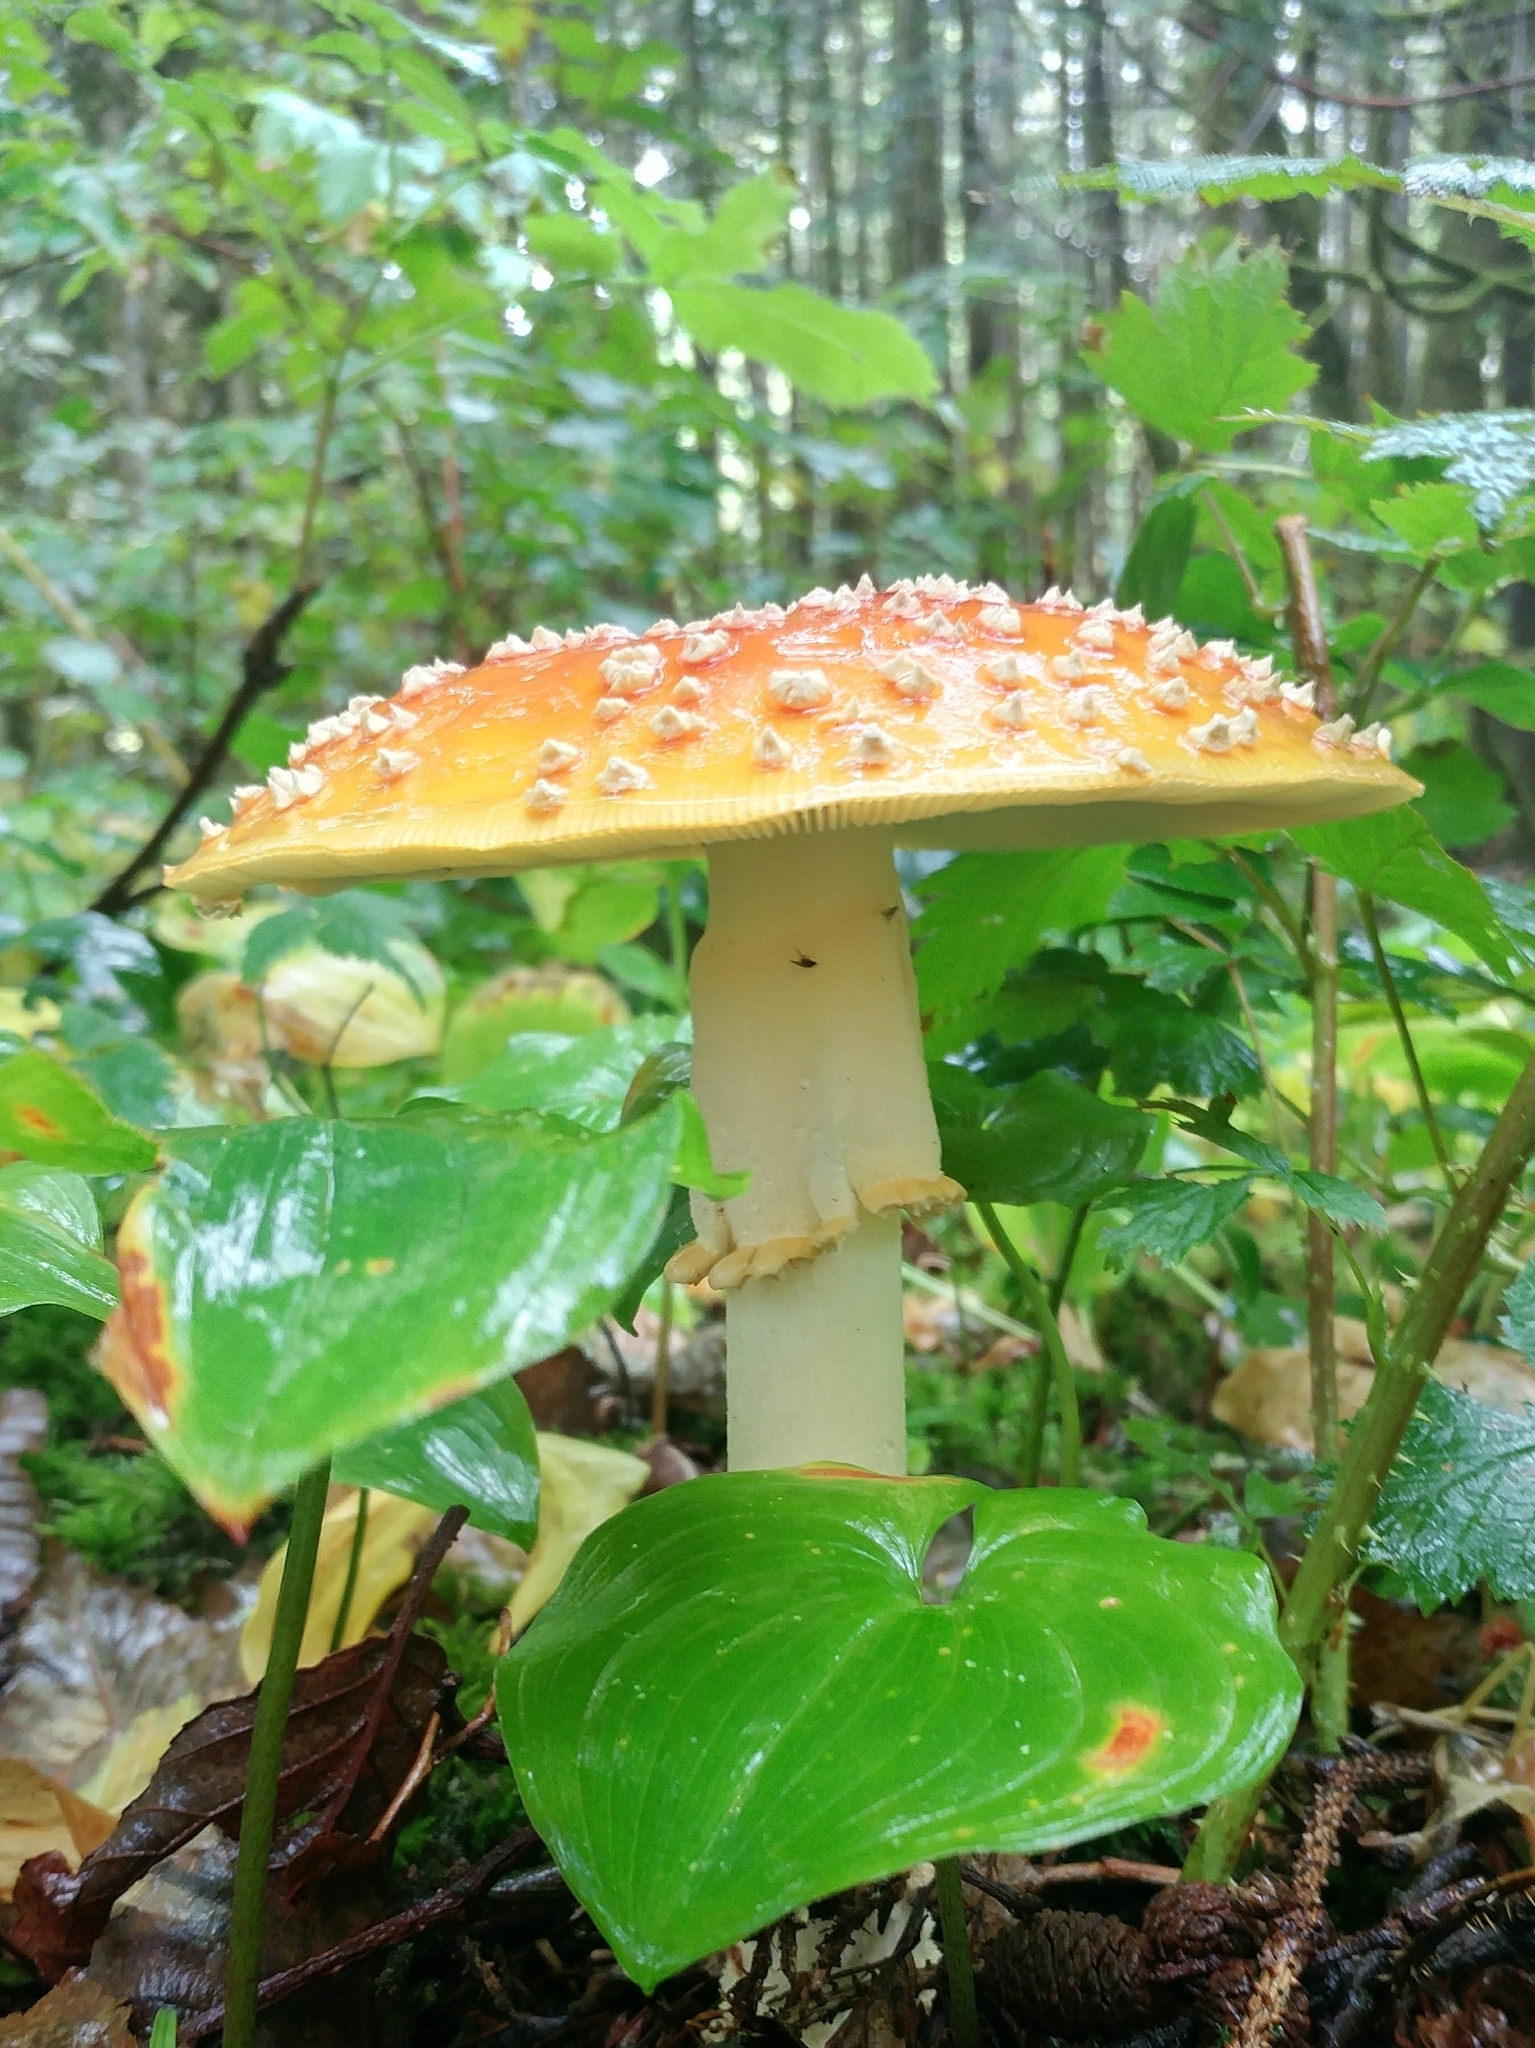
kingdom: Fungi
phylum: Basidiomycota
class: Agaricomycetes
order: Agaricales
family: Amanitaceae
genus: Amanita
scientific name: Amanita muscaria
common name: Fly agaric
